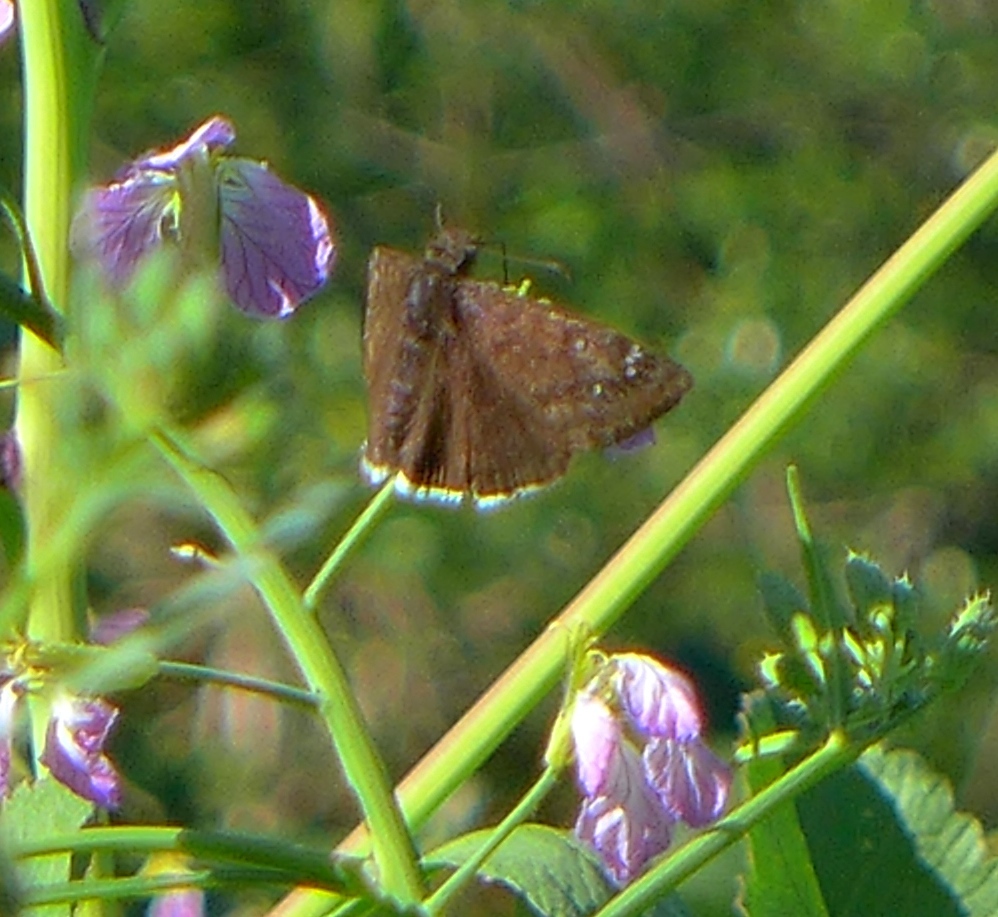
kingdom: Animalia
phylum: Arthropoda
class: Insecta
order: Lepidoptera
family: Hesperiidae
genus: Erynnis
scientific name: Erynnis tristis
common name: Mournful duskywing
